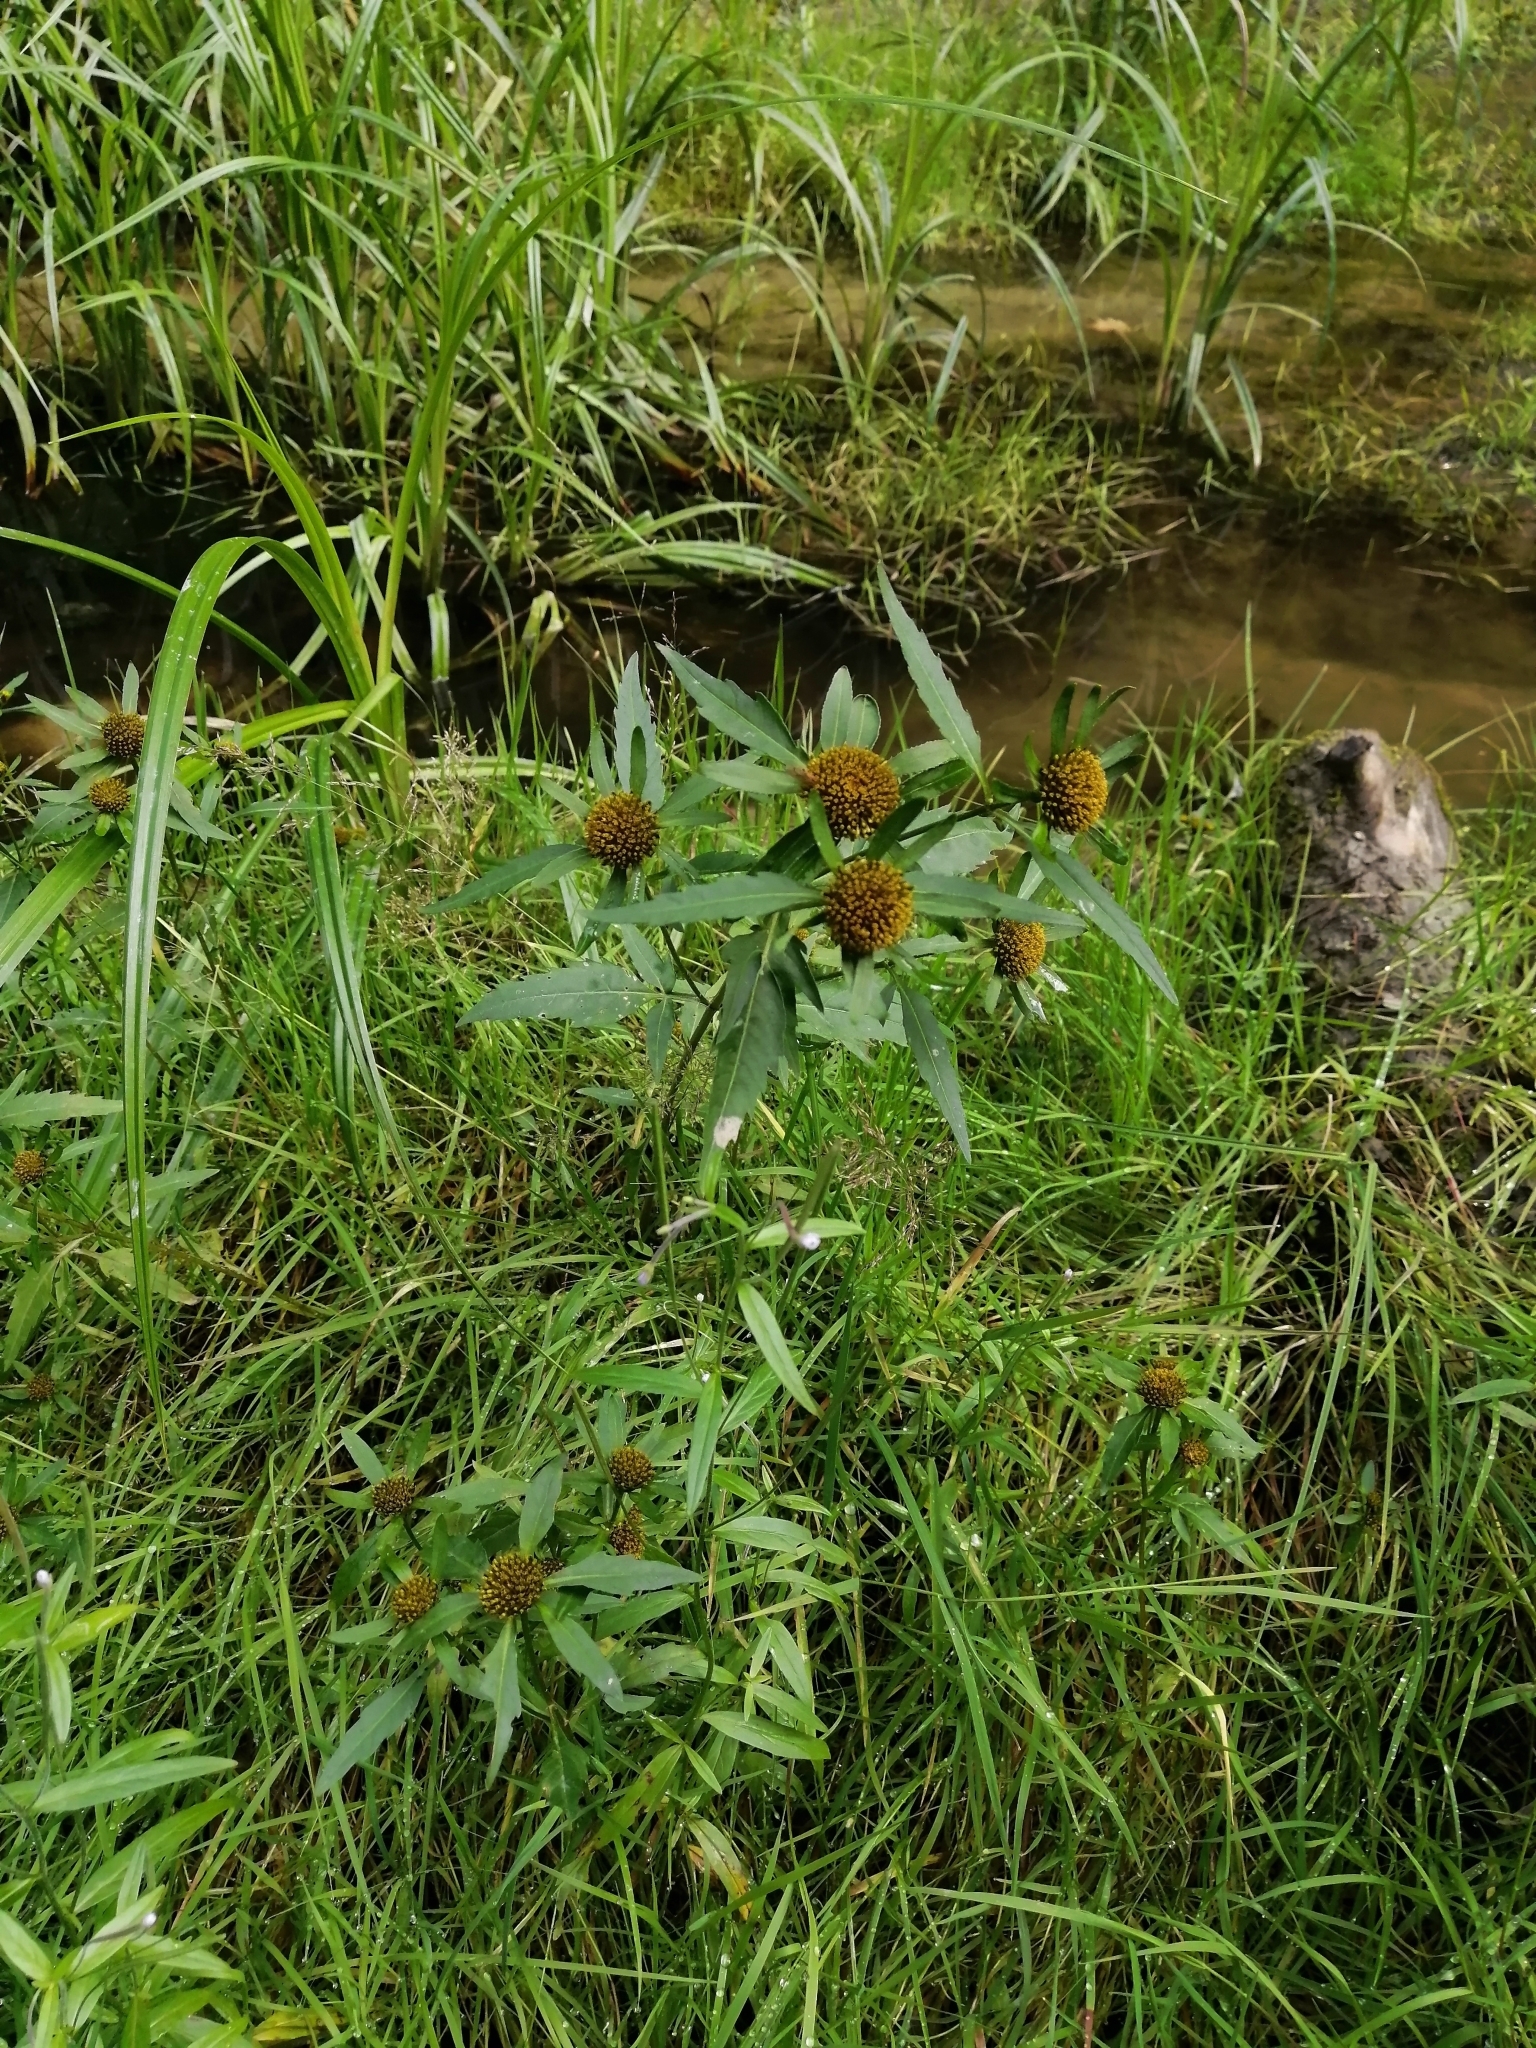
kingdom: Plantae
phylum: Tracheophyta
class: Magnoliopsida
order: Asterales
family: Asteraceae
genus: Bidens
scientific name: Bidens radiata
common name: Radiating bur-marigold
